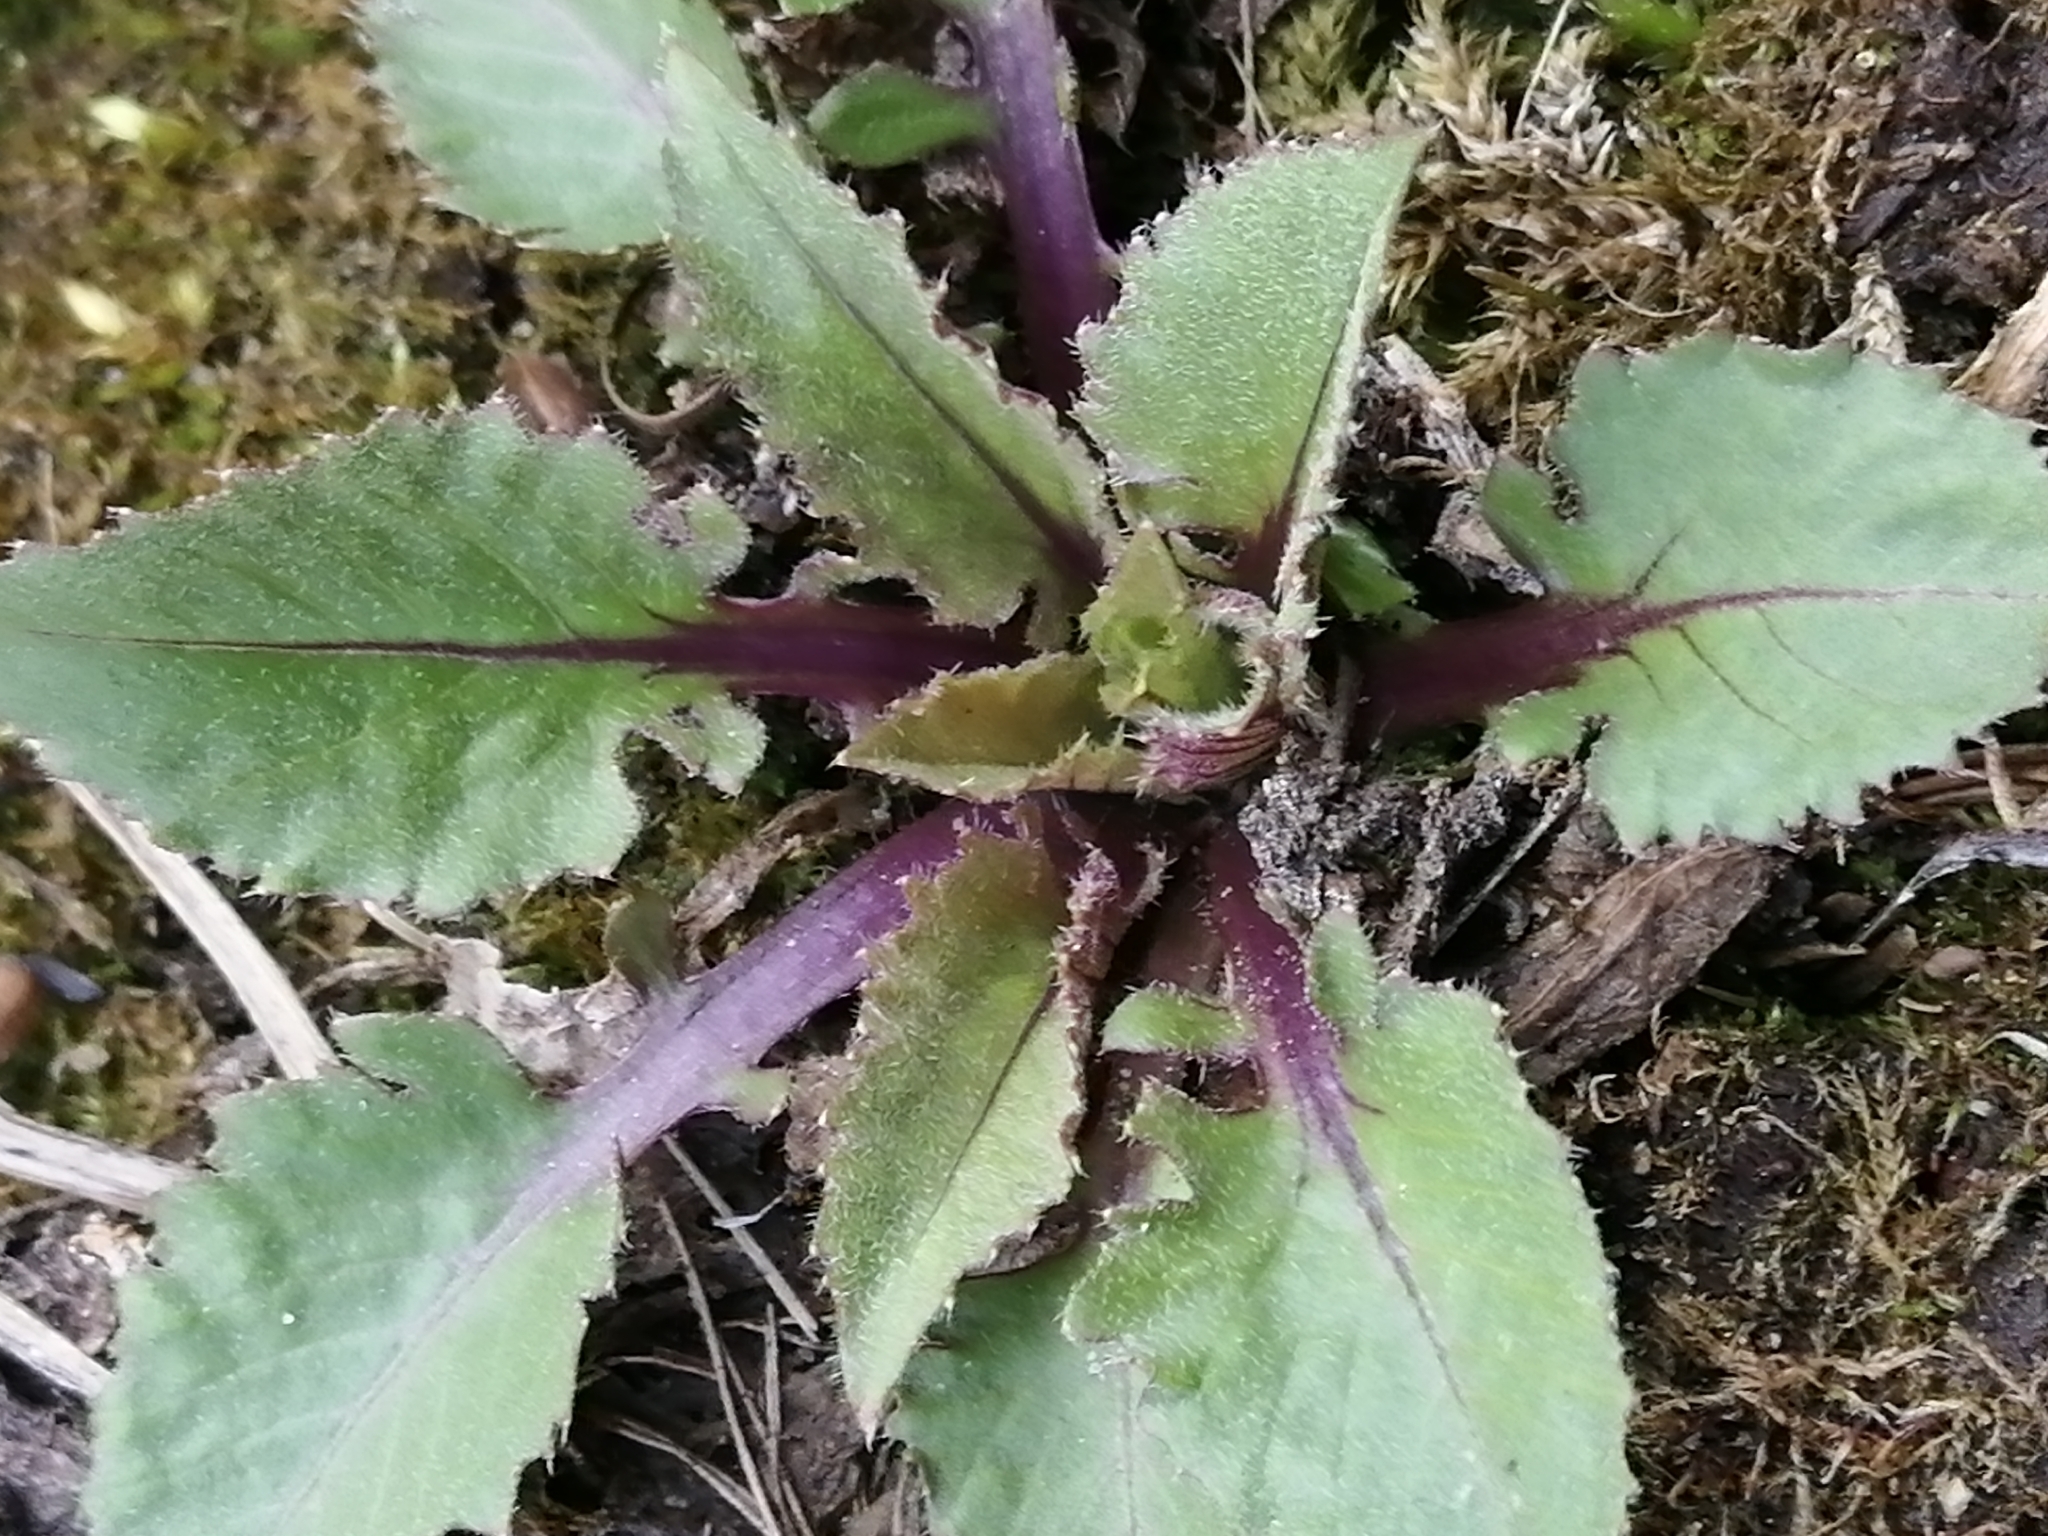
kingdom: Plantae
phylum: Tracheophyta
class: Magnoliopsida
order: Brassicales
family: Brassicaceae
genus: Catolobus
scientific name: Catolobus pendulus
